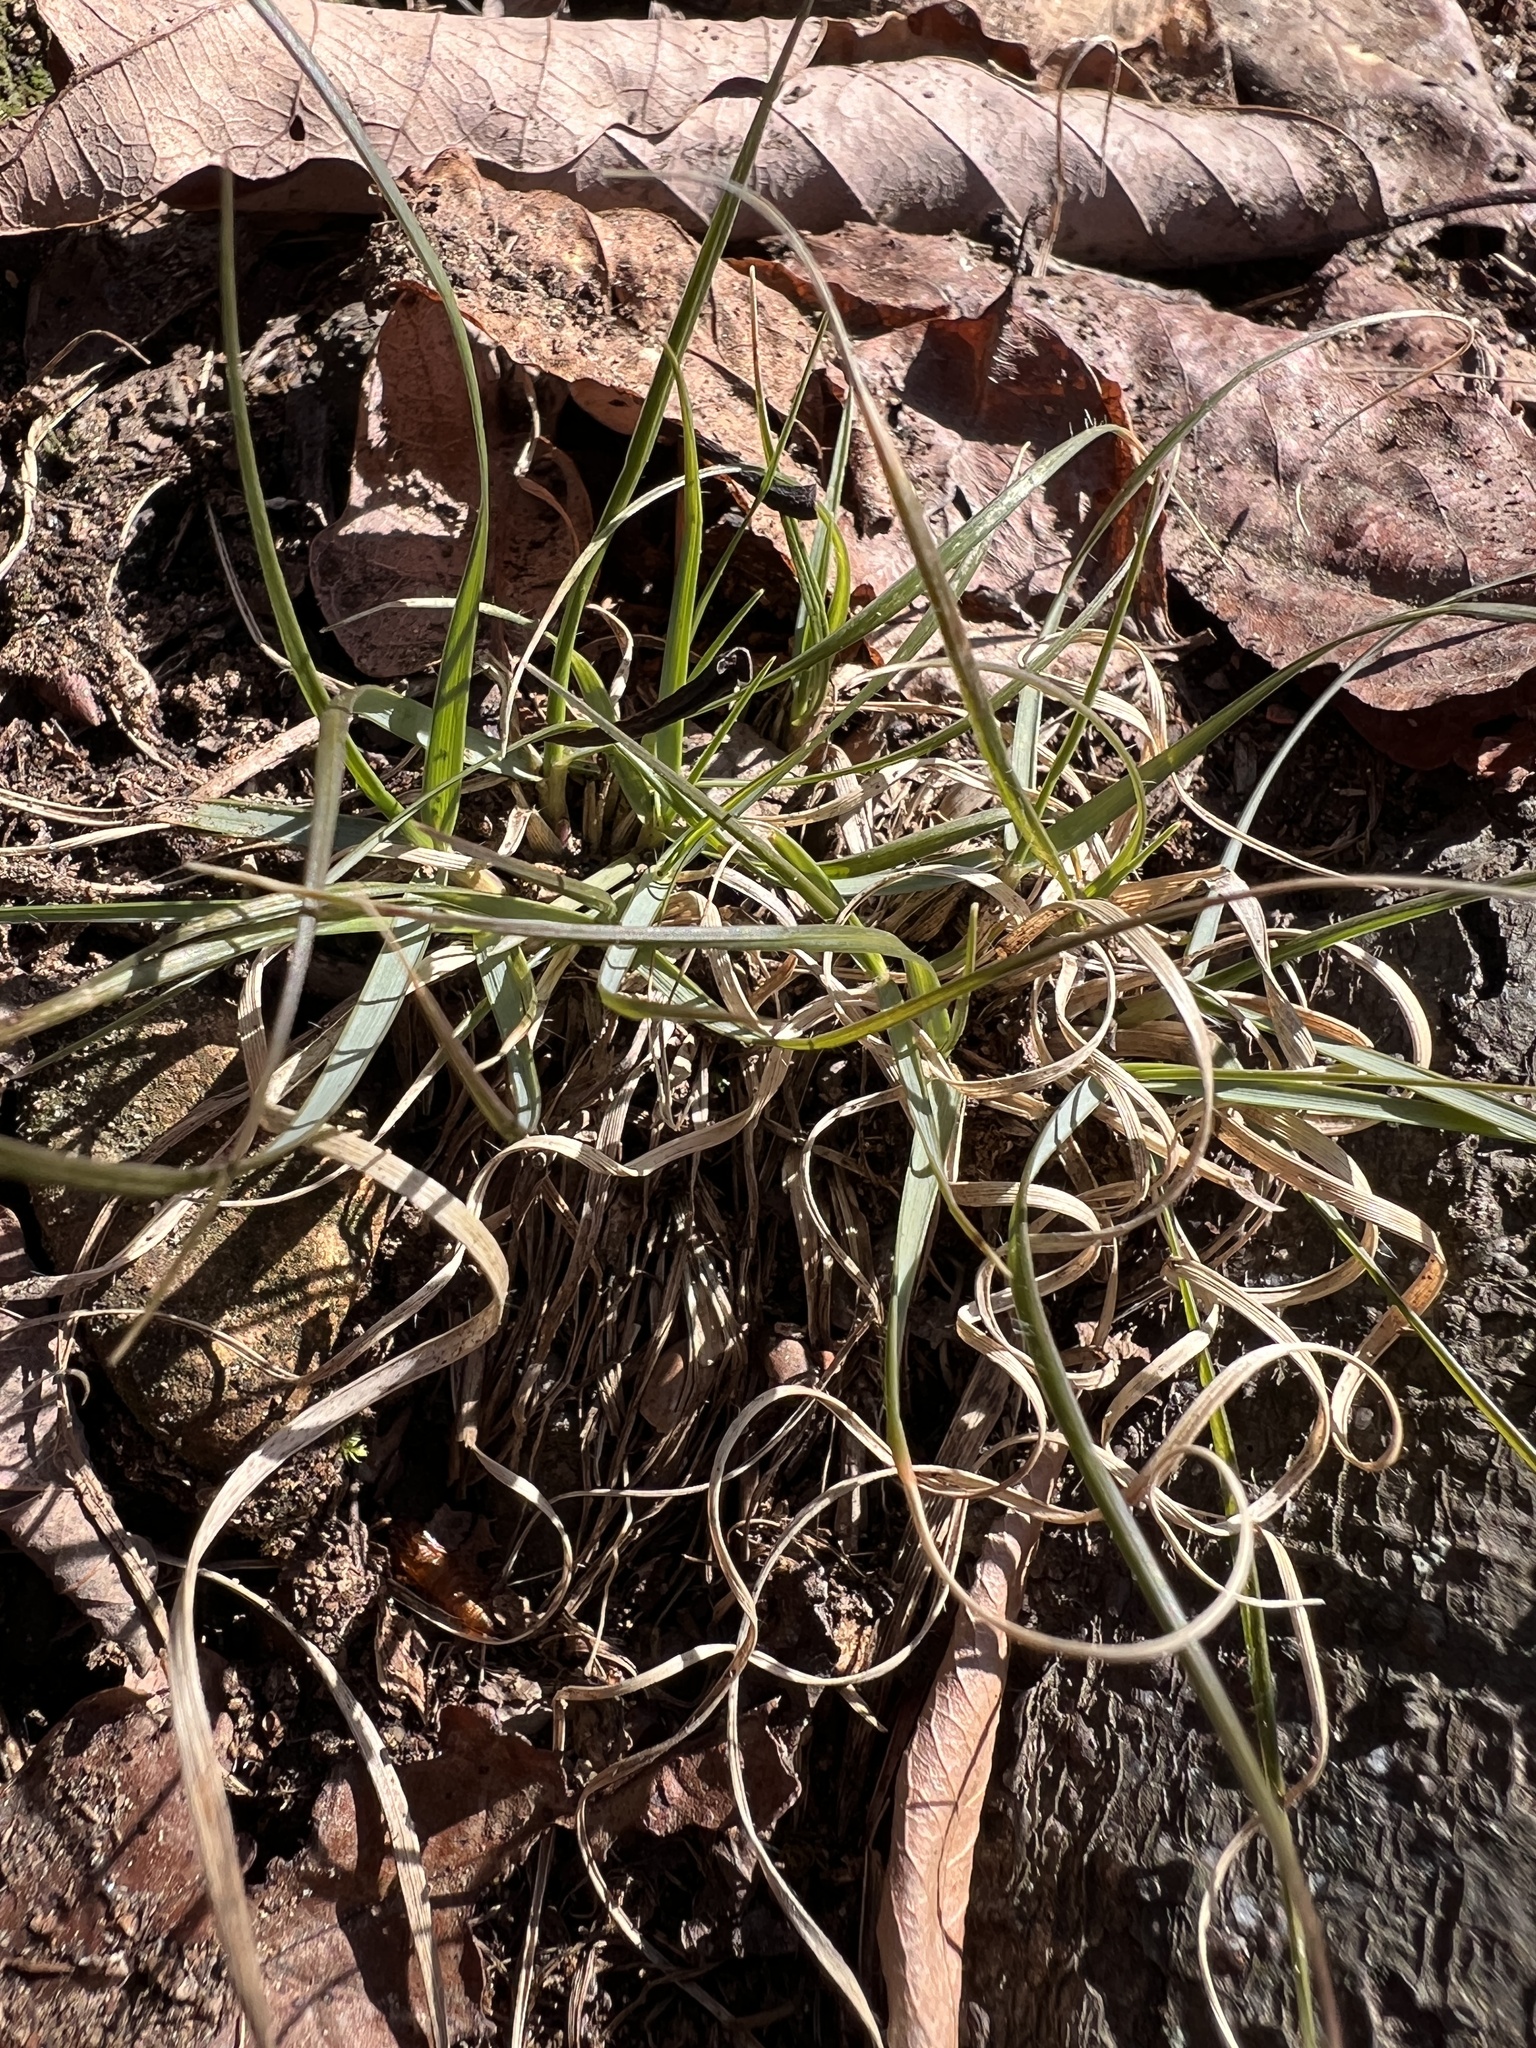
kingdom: Plantae
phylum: Tracheophyta
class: Liliopsida
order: Poales
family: Poaceae
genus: Danthonia
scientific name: Danthonia spicata
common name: Common wild oatgrass
